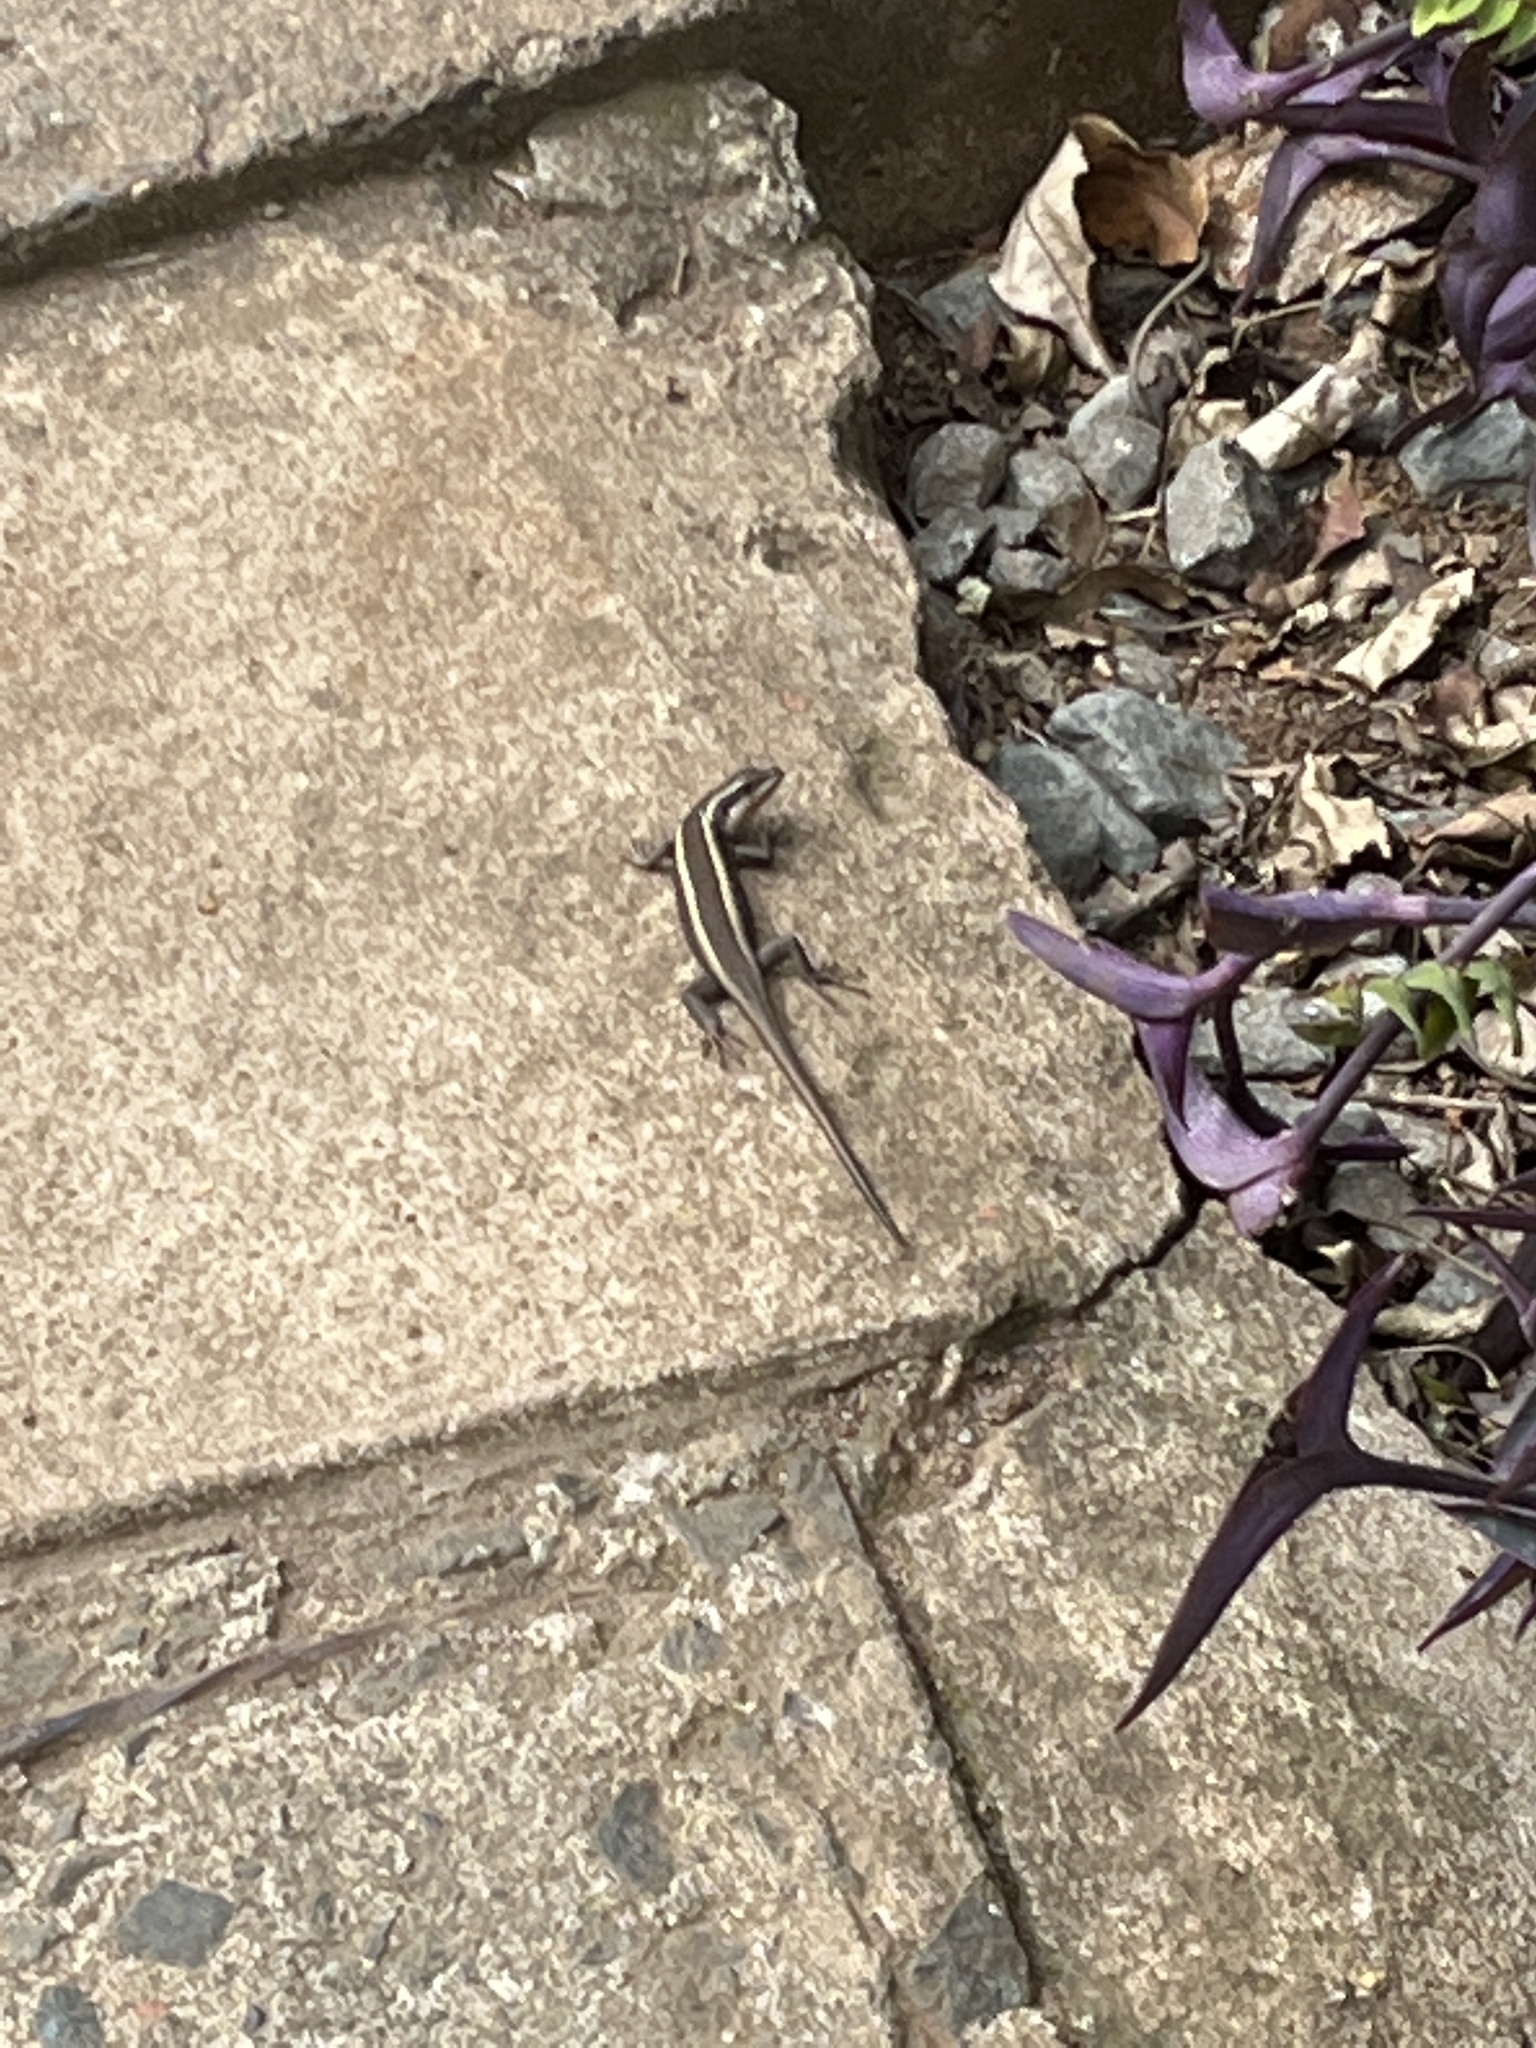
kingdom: Animalia
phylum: Chordata
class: Squamata
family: Scincidae
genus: Trachylepis
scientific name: Trachylepis striata
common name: African striped mabuya
